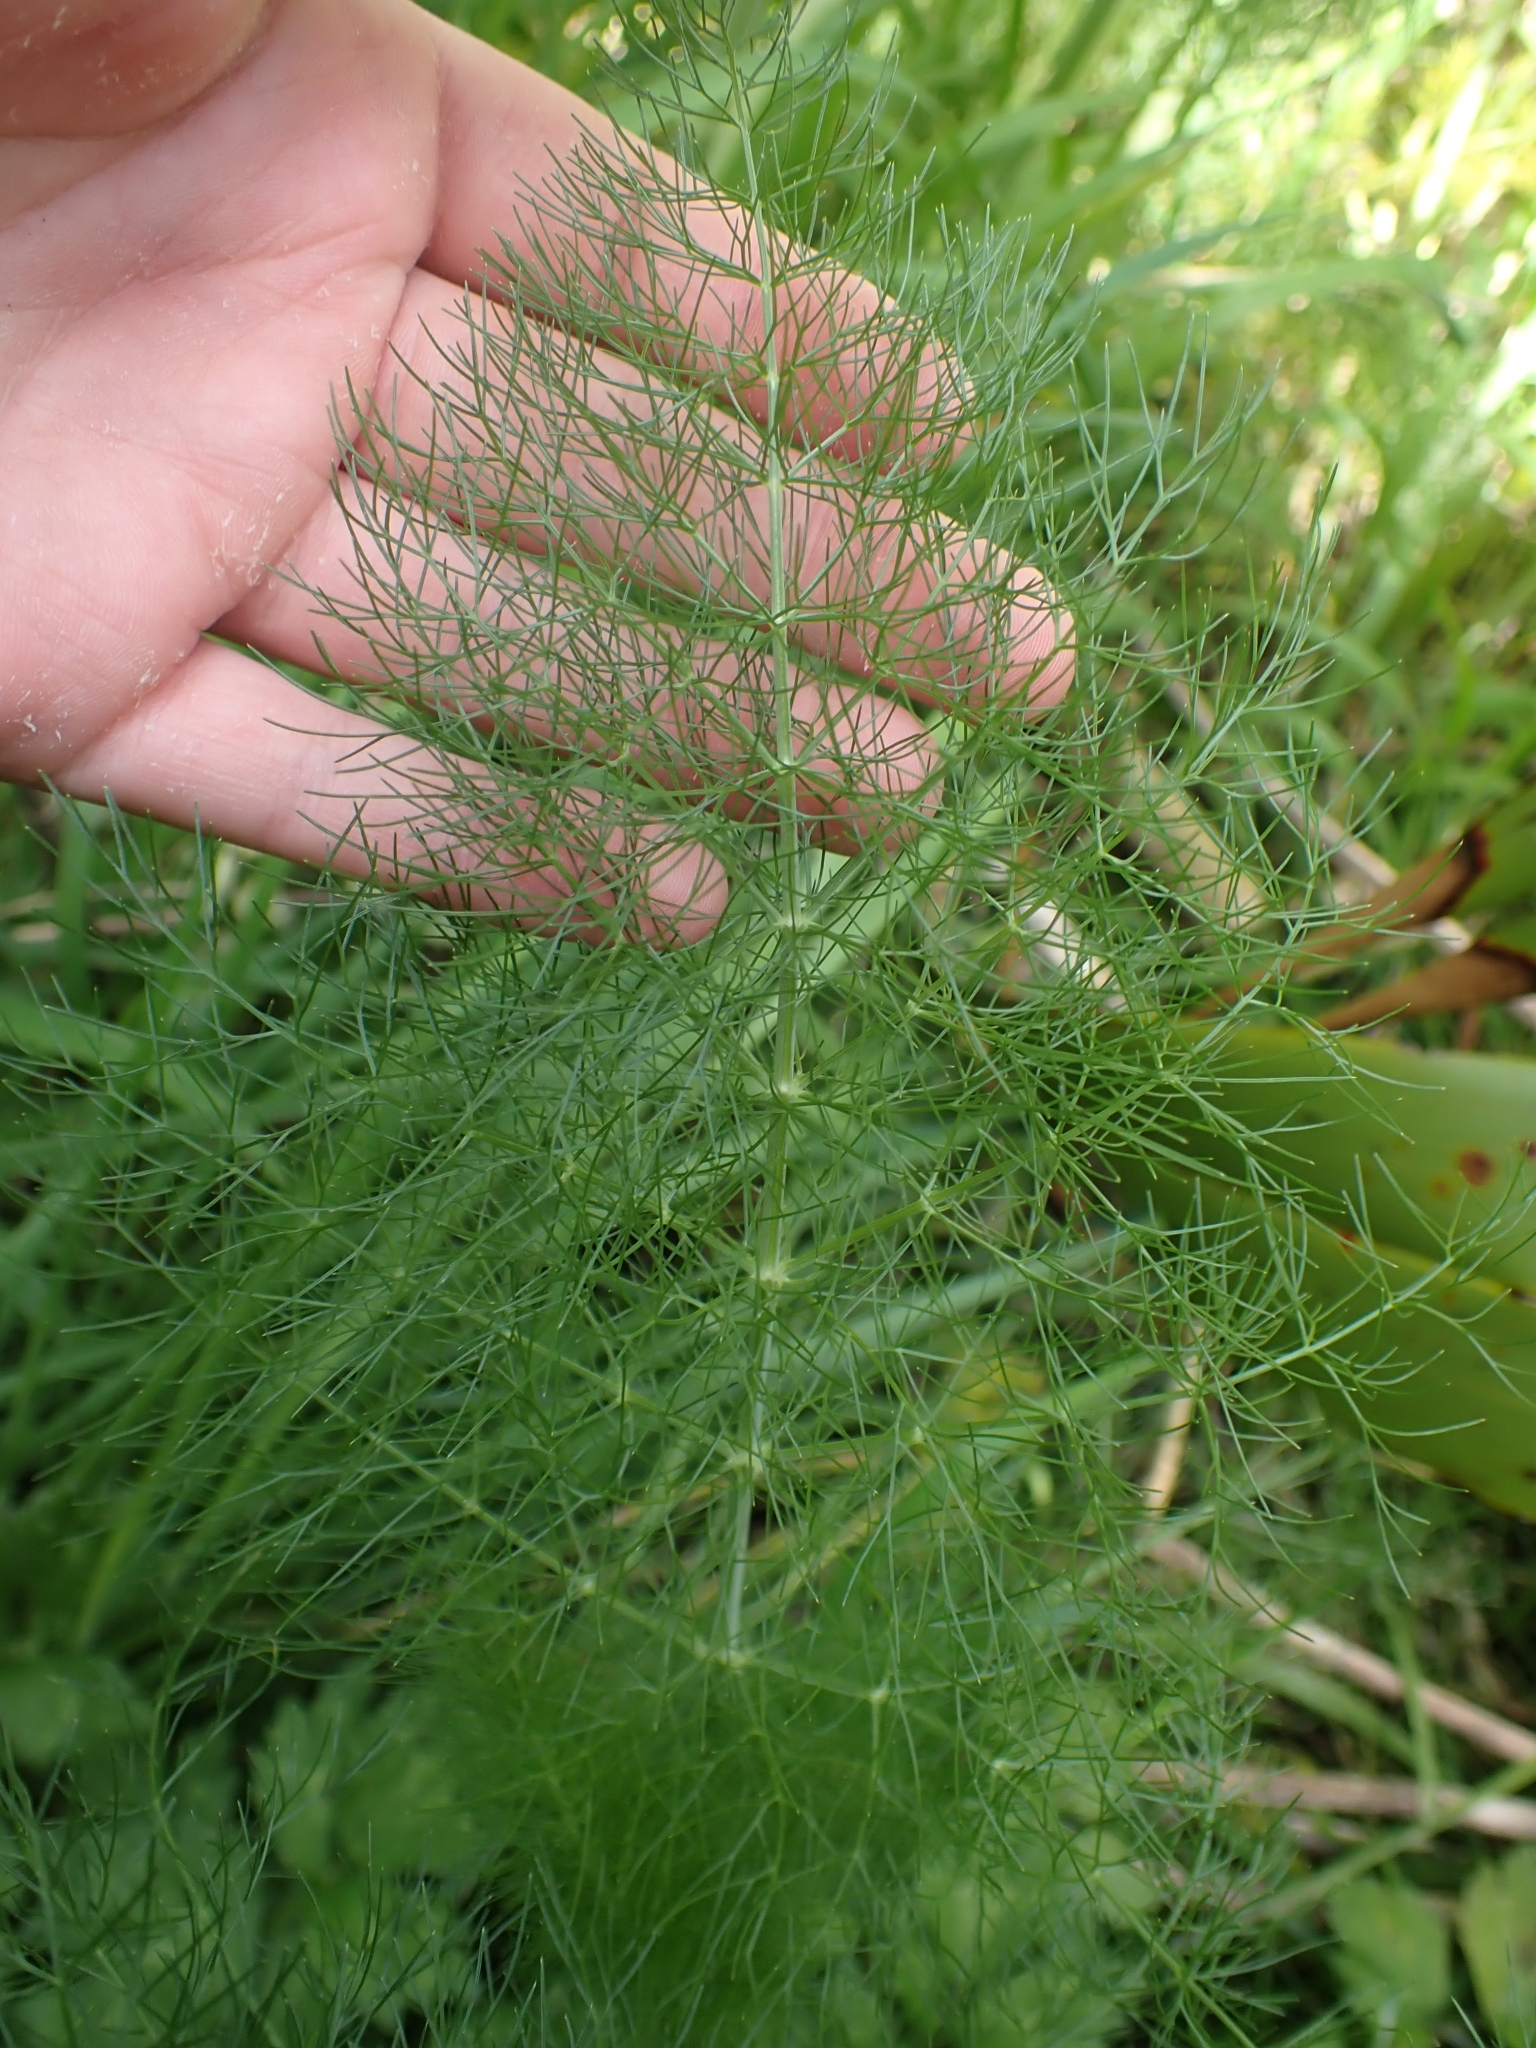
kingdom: Plantae
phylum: Tracheophyta
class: Magnoliopsida
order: Apiales
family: Apiaceae
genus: Foeniculum
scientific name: Foeniculum vulgare
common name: Fennel
